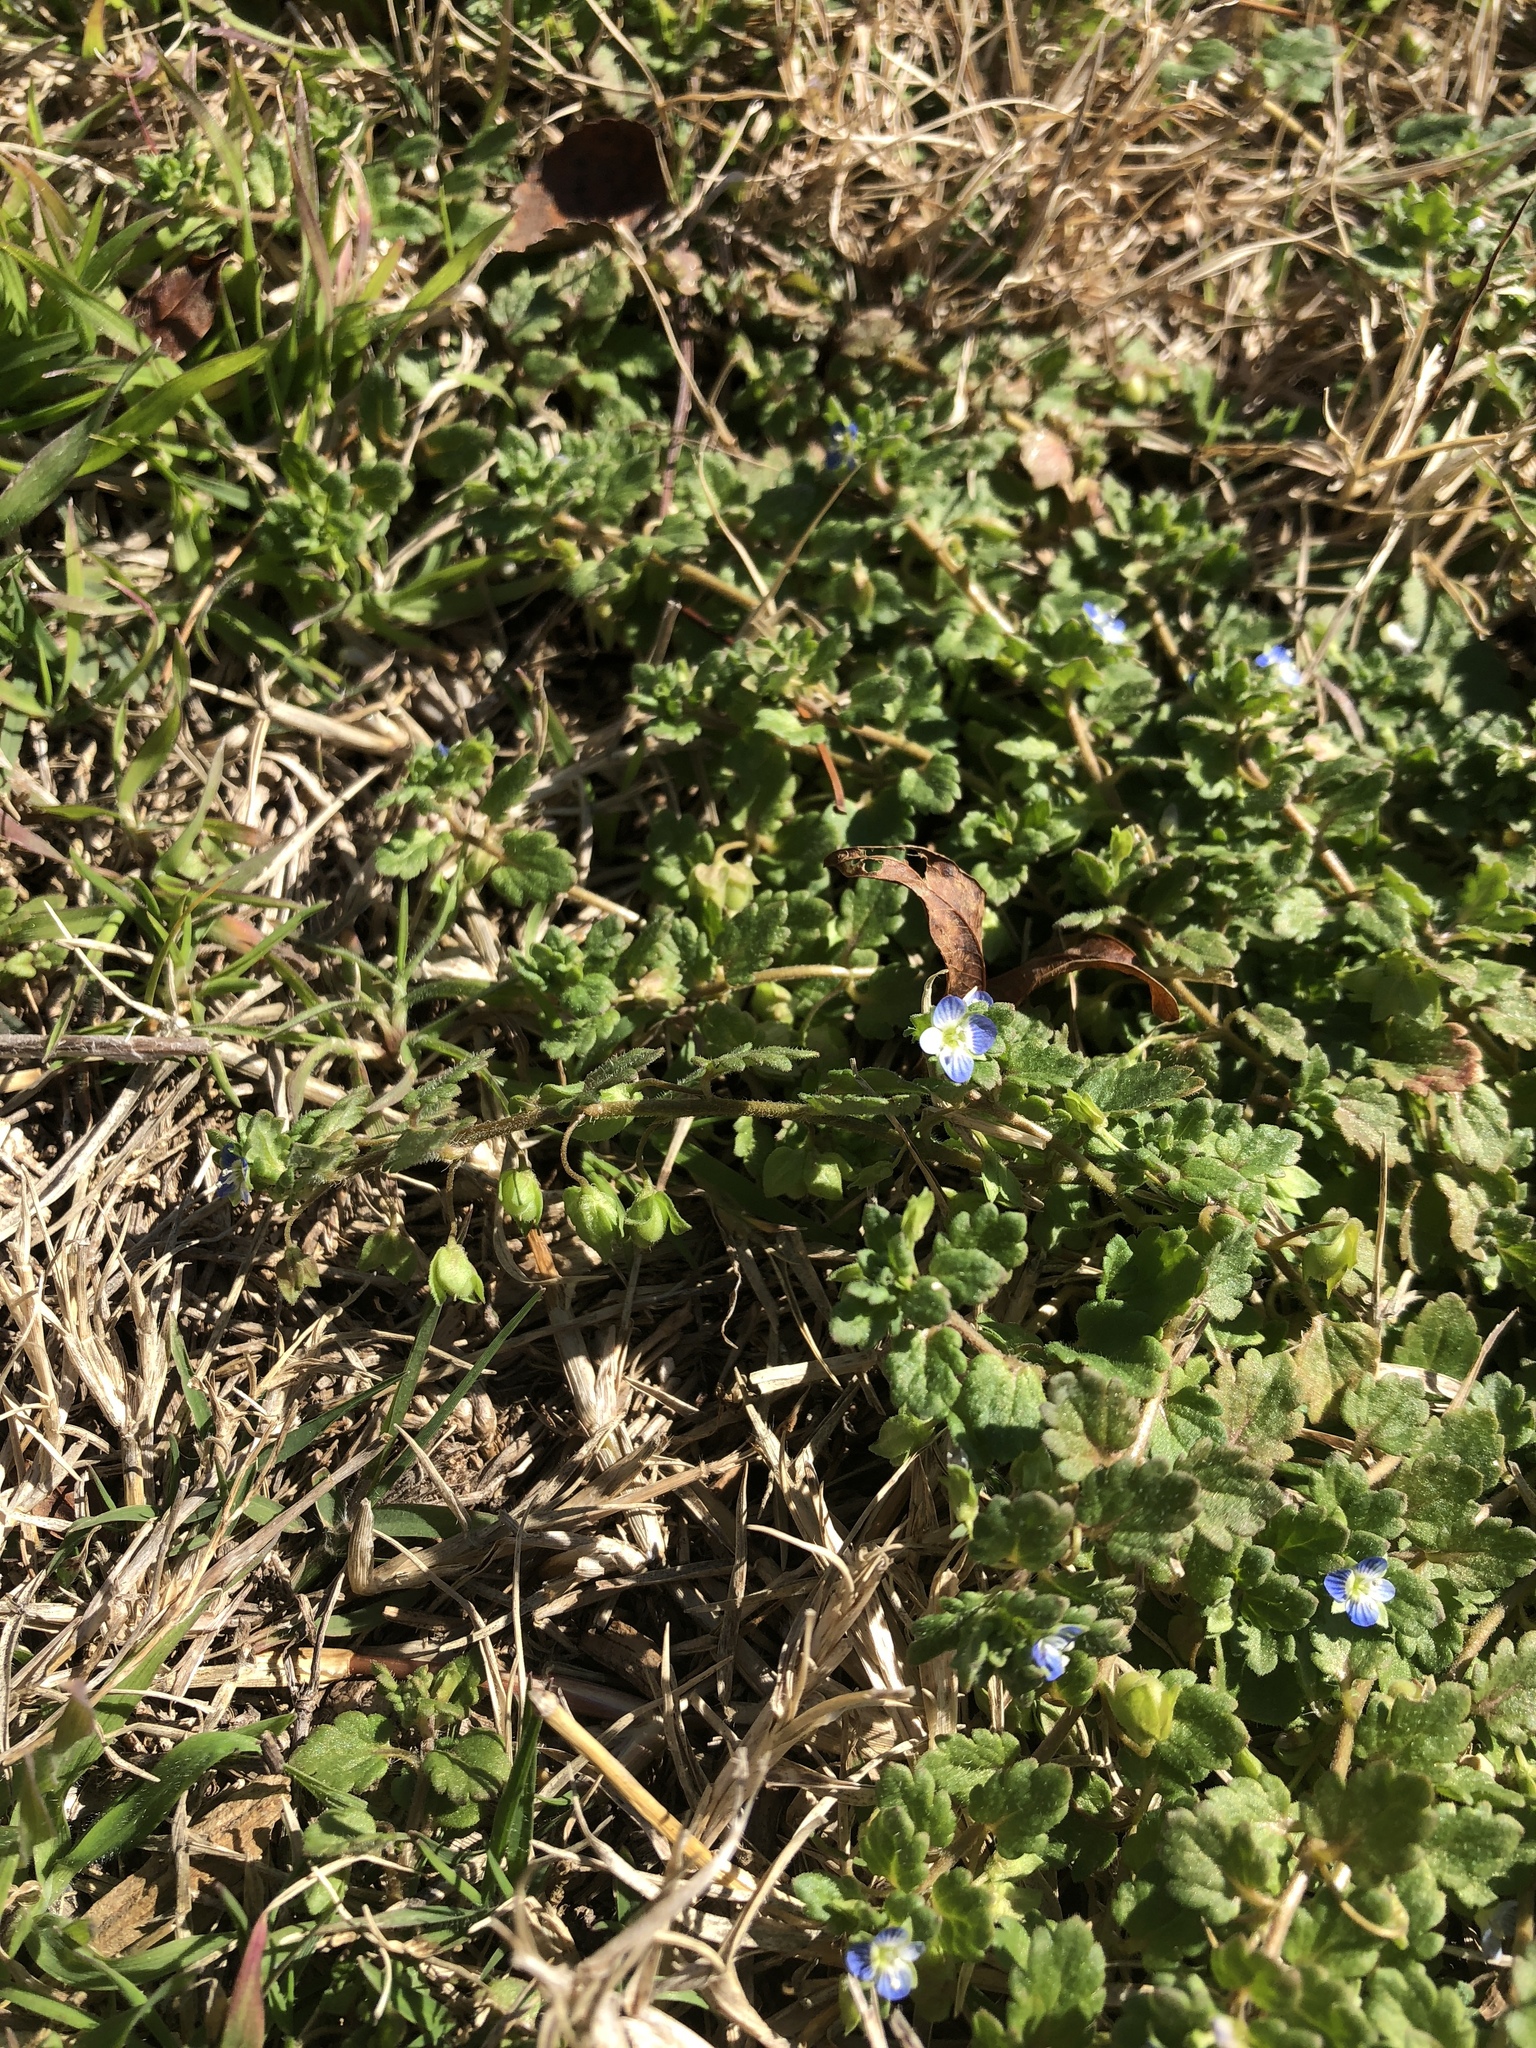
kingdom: Plantae
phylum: Tracheophyta
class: Magnoliopsida
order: Lamiales
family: Plantaginaceae
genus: Veronica
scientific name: Veronica polita
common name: Grey field-speedwell
